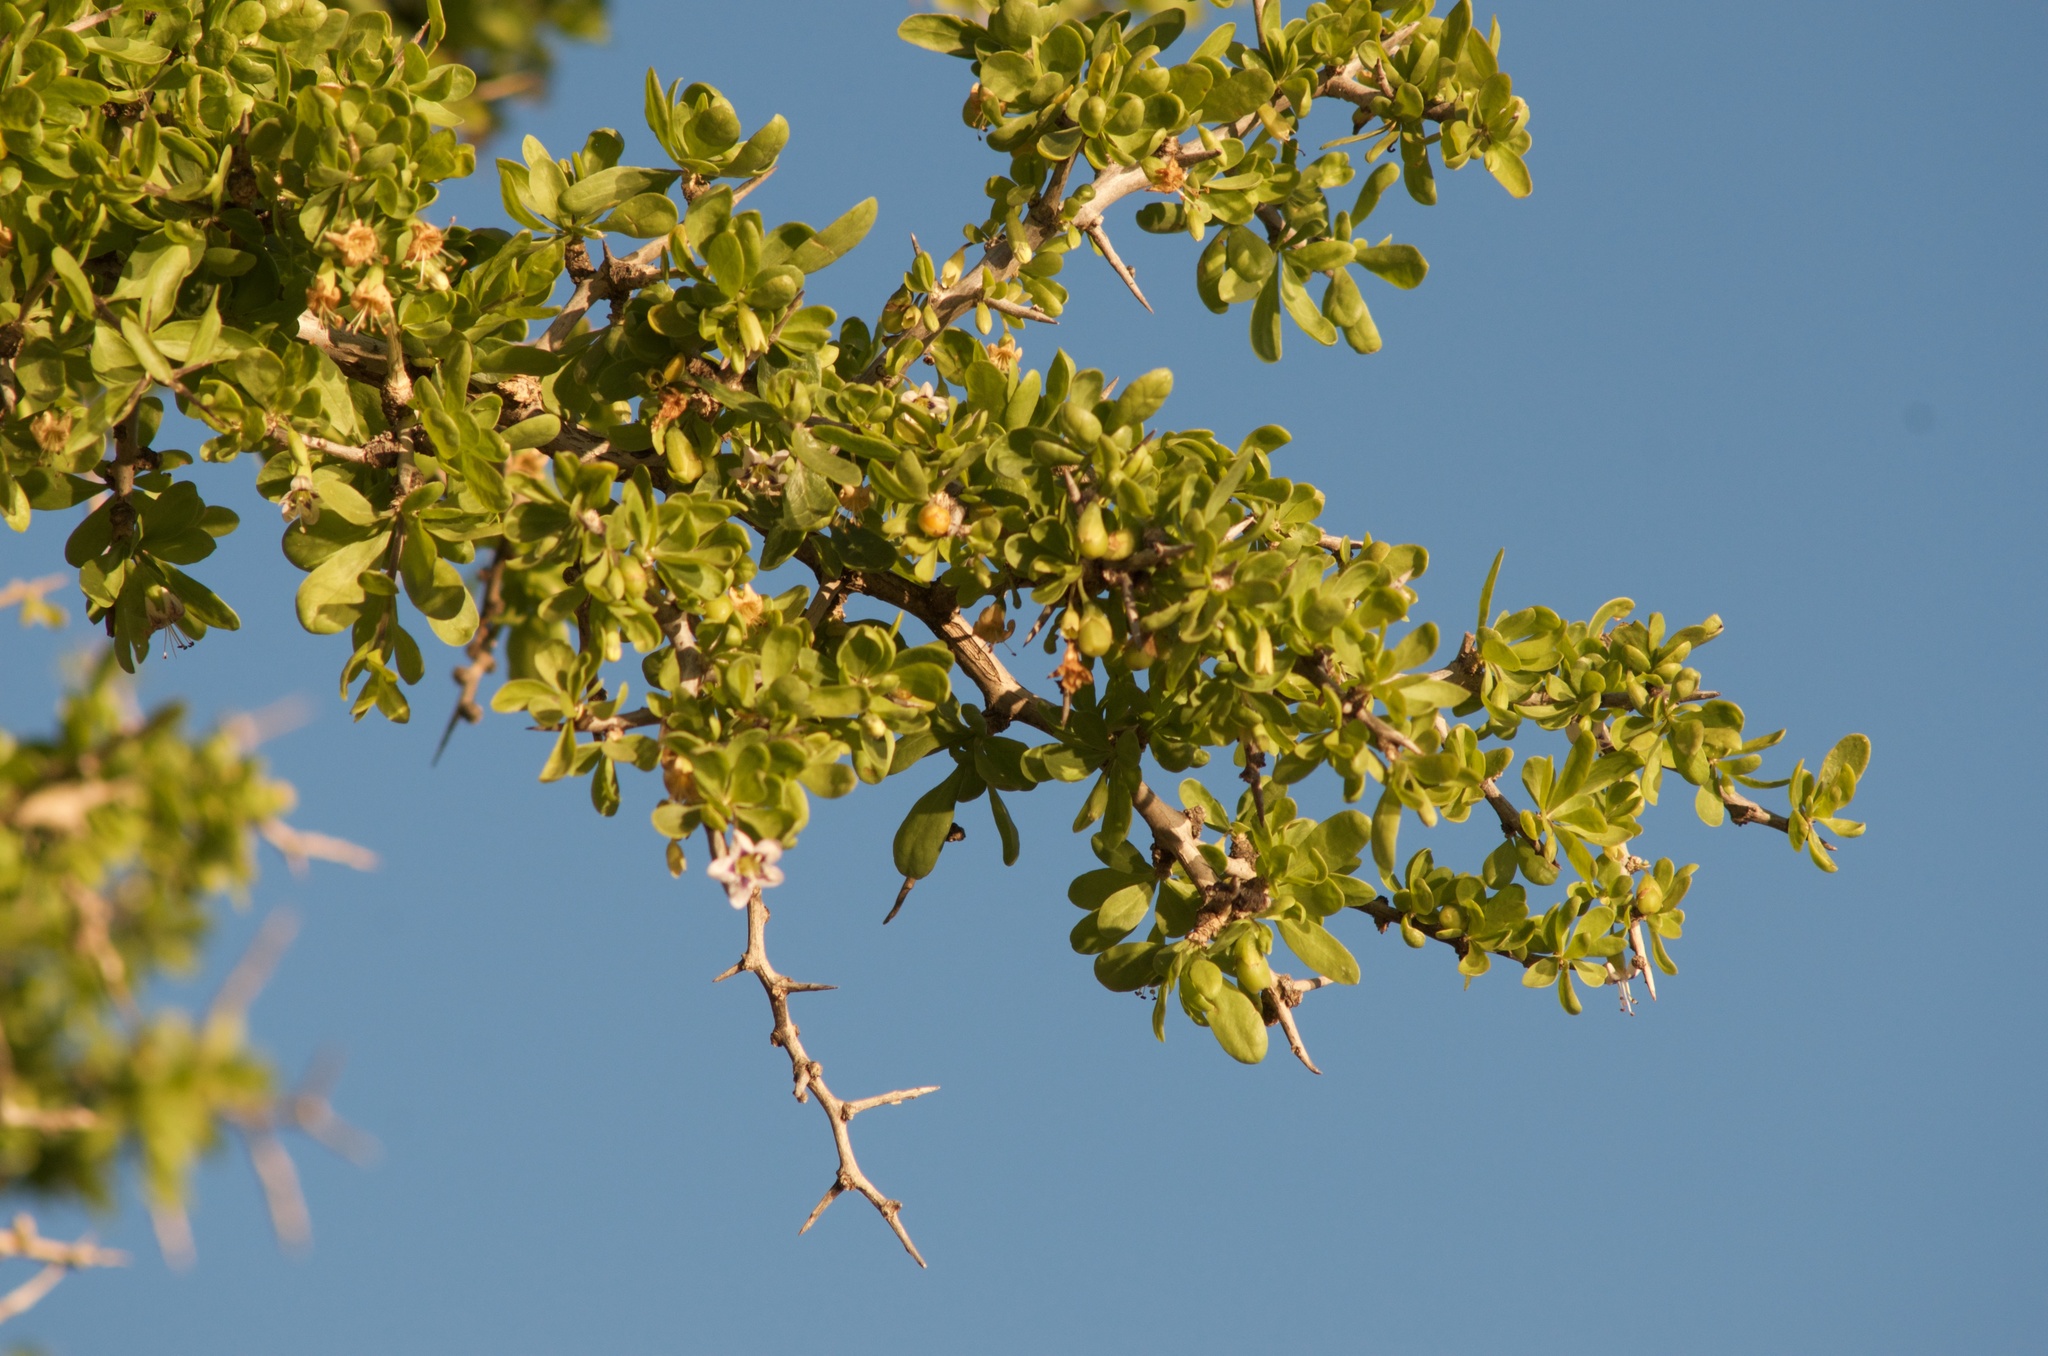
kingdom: Plantae
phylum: Tracheophyta
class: Magnoliopsida
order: Solanales
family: Solanaceae
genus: Lycium
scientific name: Lycium ferocissimum
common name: African boxthorn
